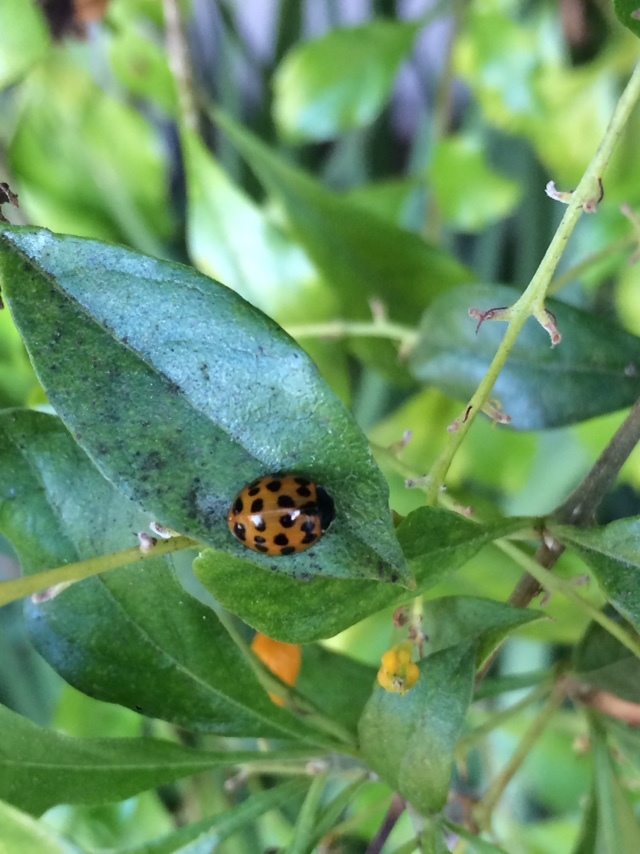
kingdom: Animalia
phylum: Arthropoda
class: Insecta
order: Coleoptera
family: Coccinellidae
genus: Harmonia
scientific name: Harmonia axyridis
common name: Harlequin ladybird
